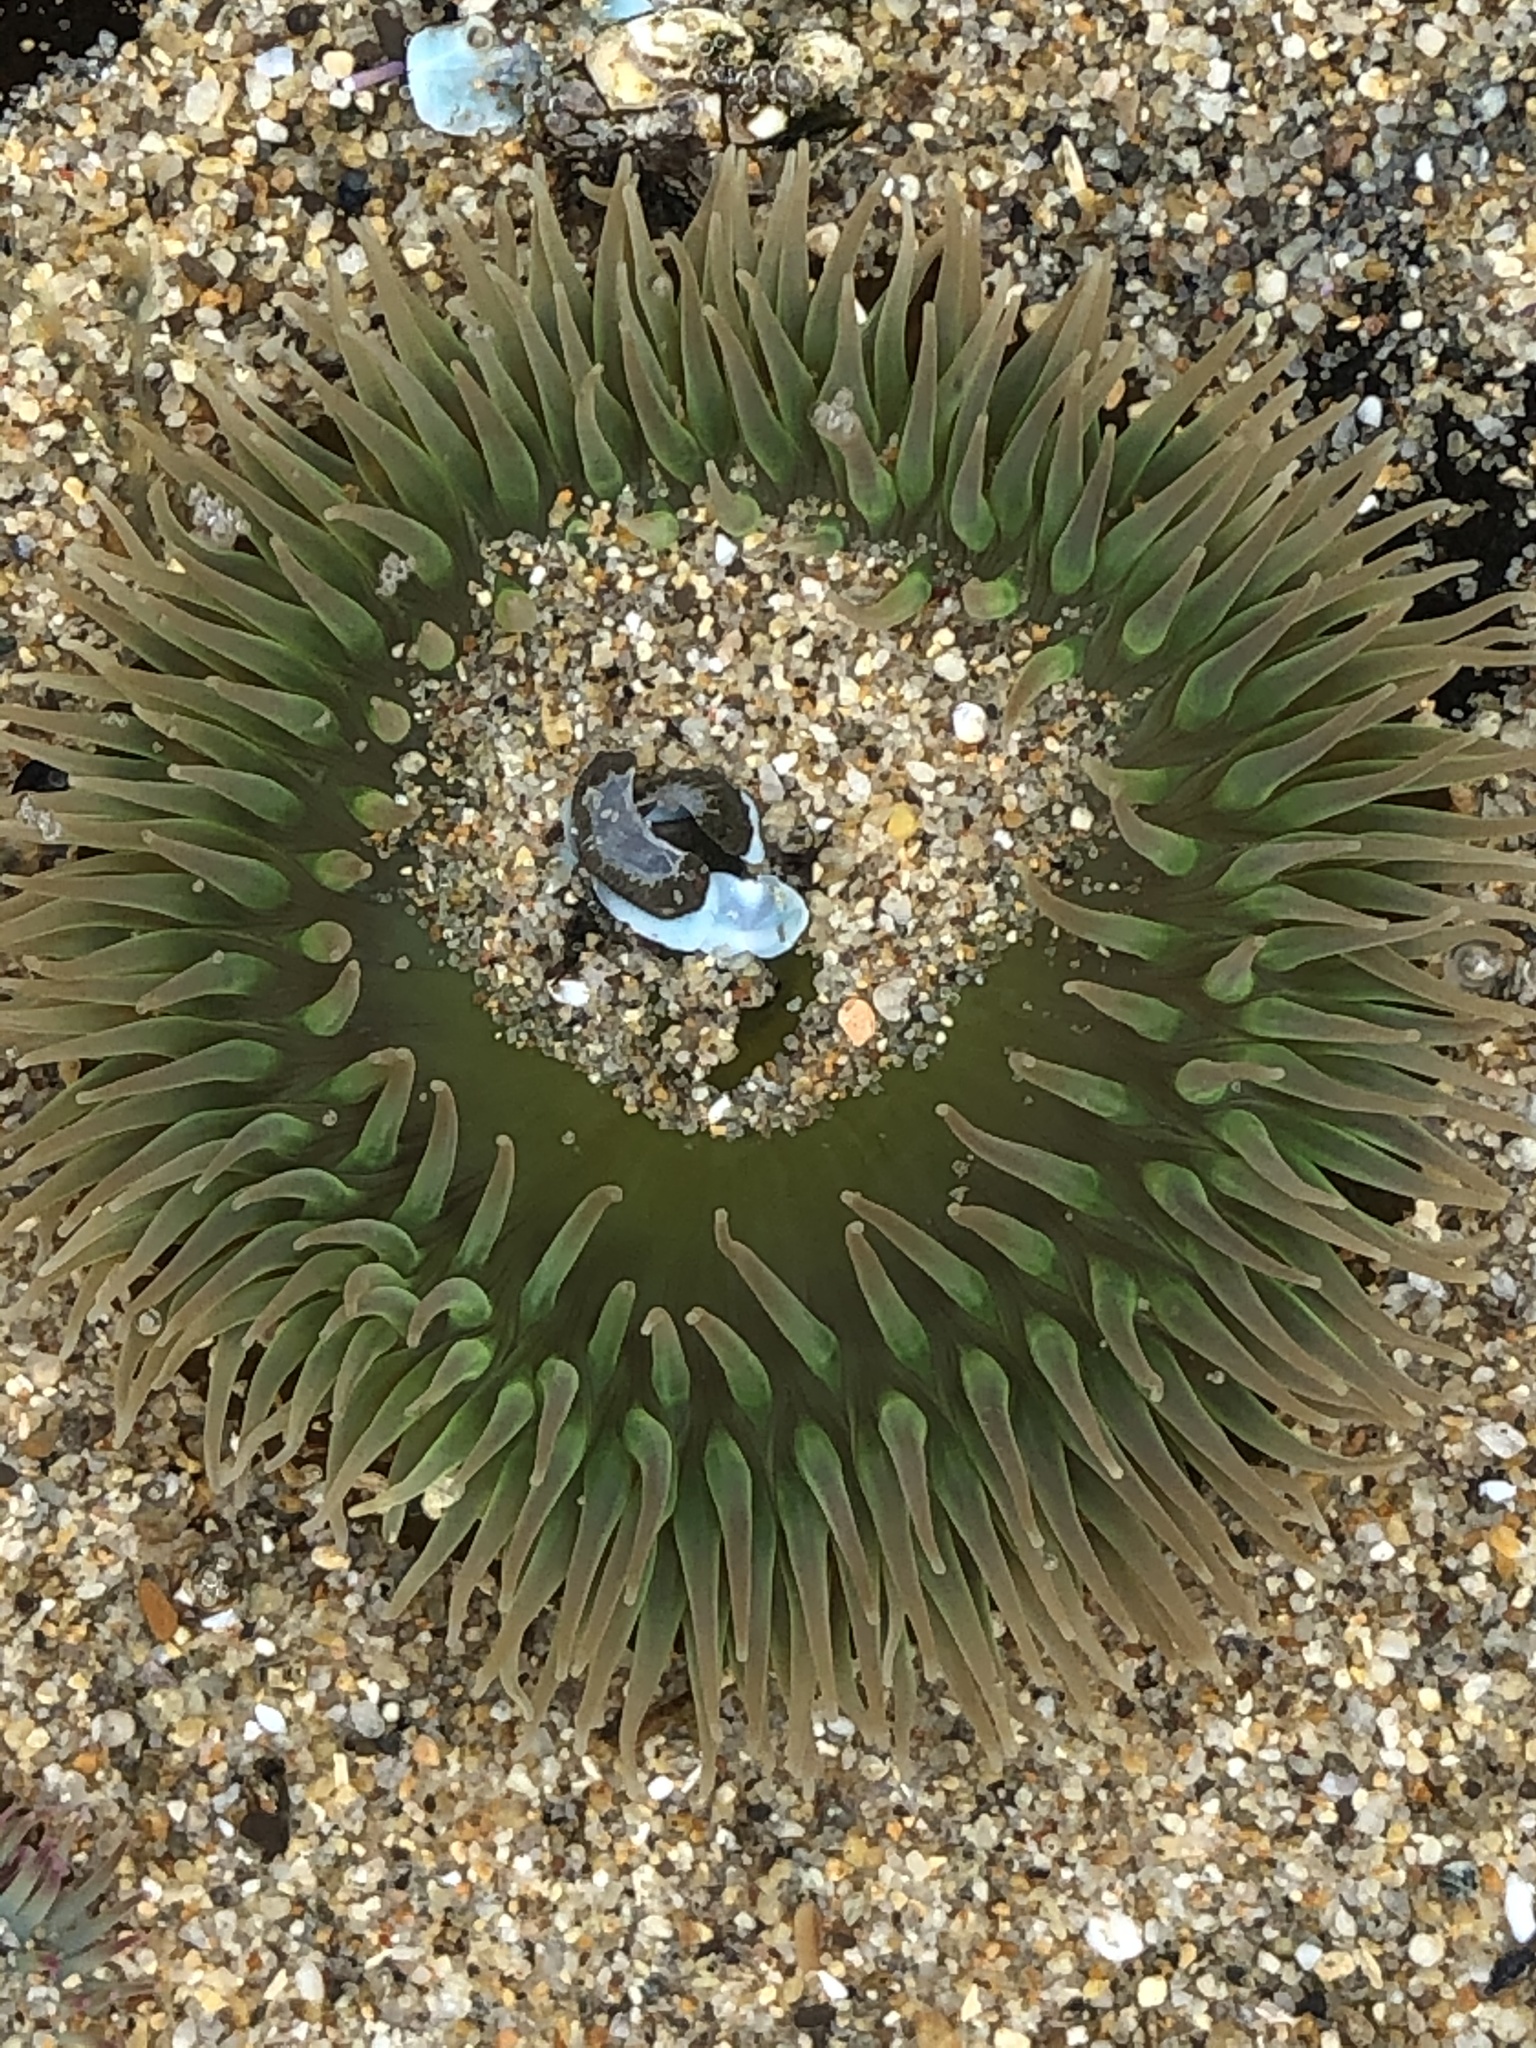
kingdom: Animalia
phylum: Cnidaria
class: Anthozoa
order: Actiniaria
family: Actiniidae
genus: Anthopleura
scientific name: Anthopleura xanthogrammica
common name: Giant green anemone
